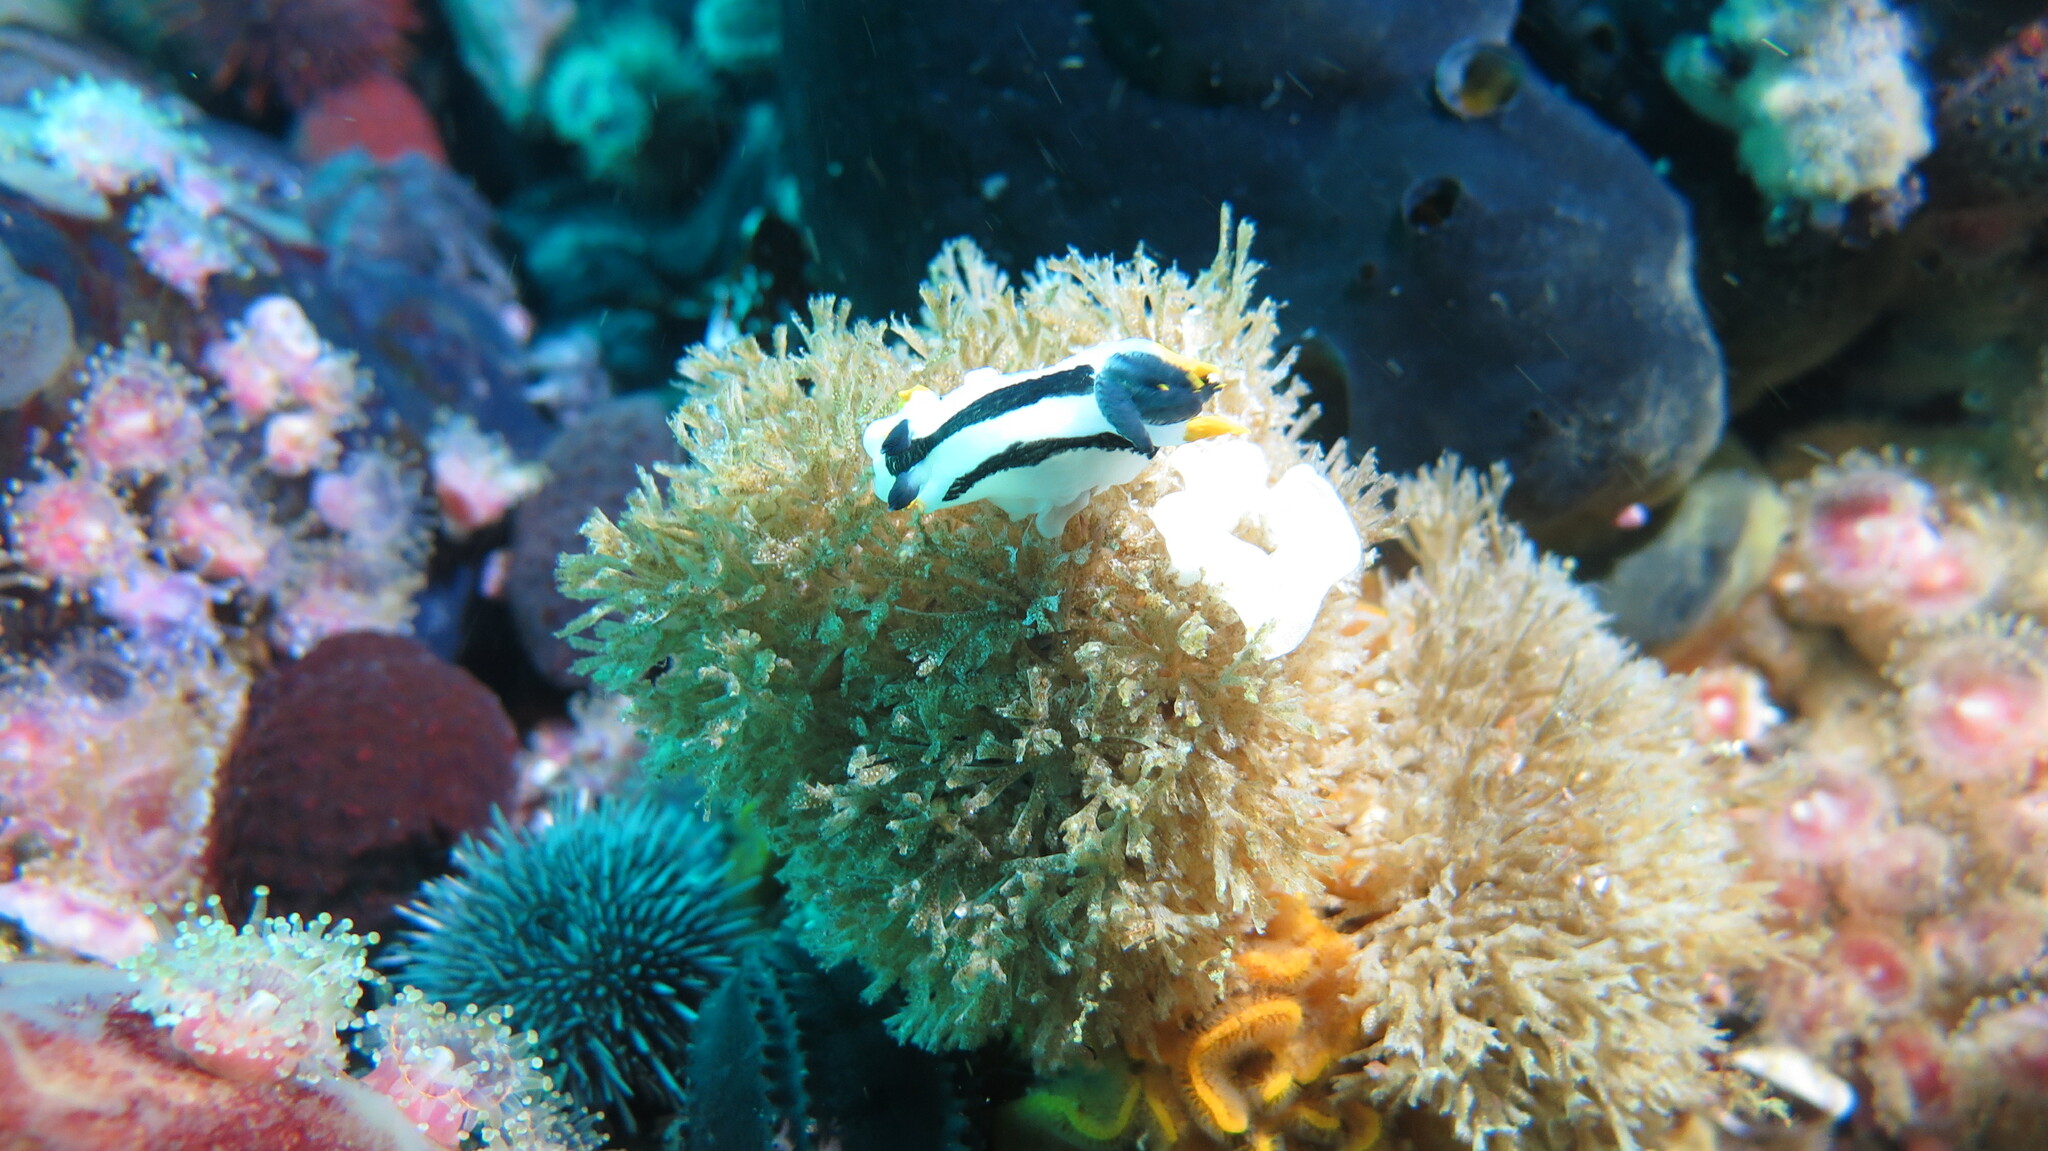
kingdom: Animalia
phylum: Mollusca
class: Gastropoda
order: Nudibranchia
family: Polyceridae
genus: Polycera
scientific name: Polycera capensis
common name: Crowned nudibranch
